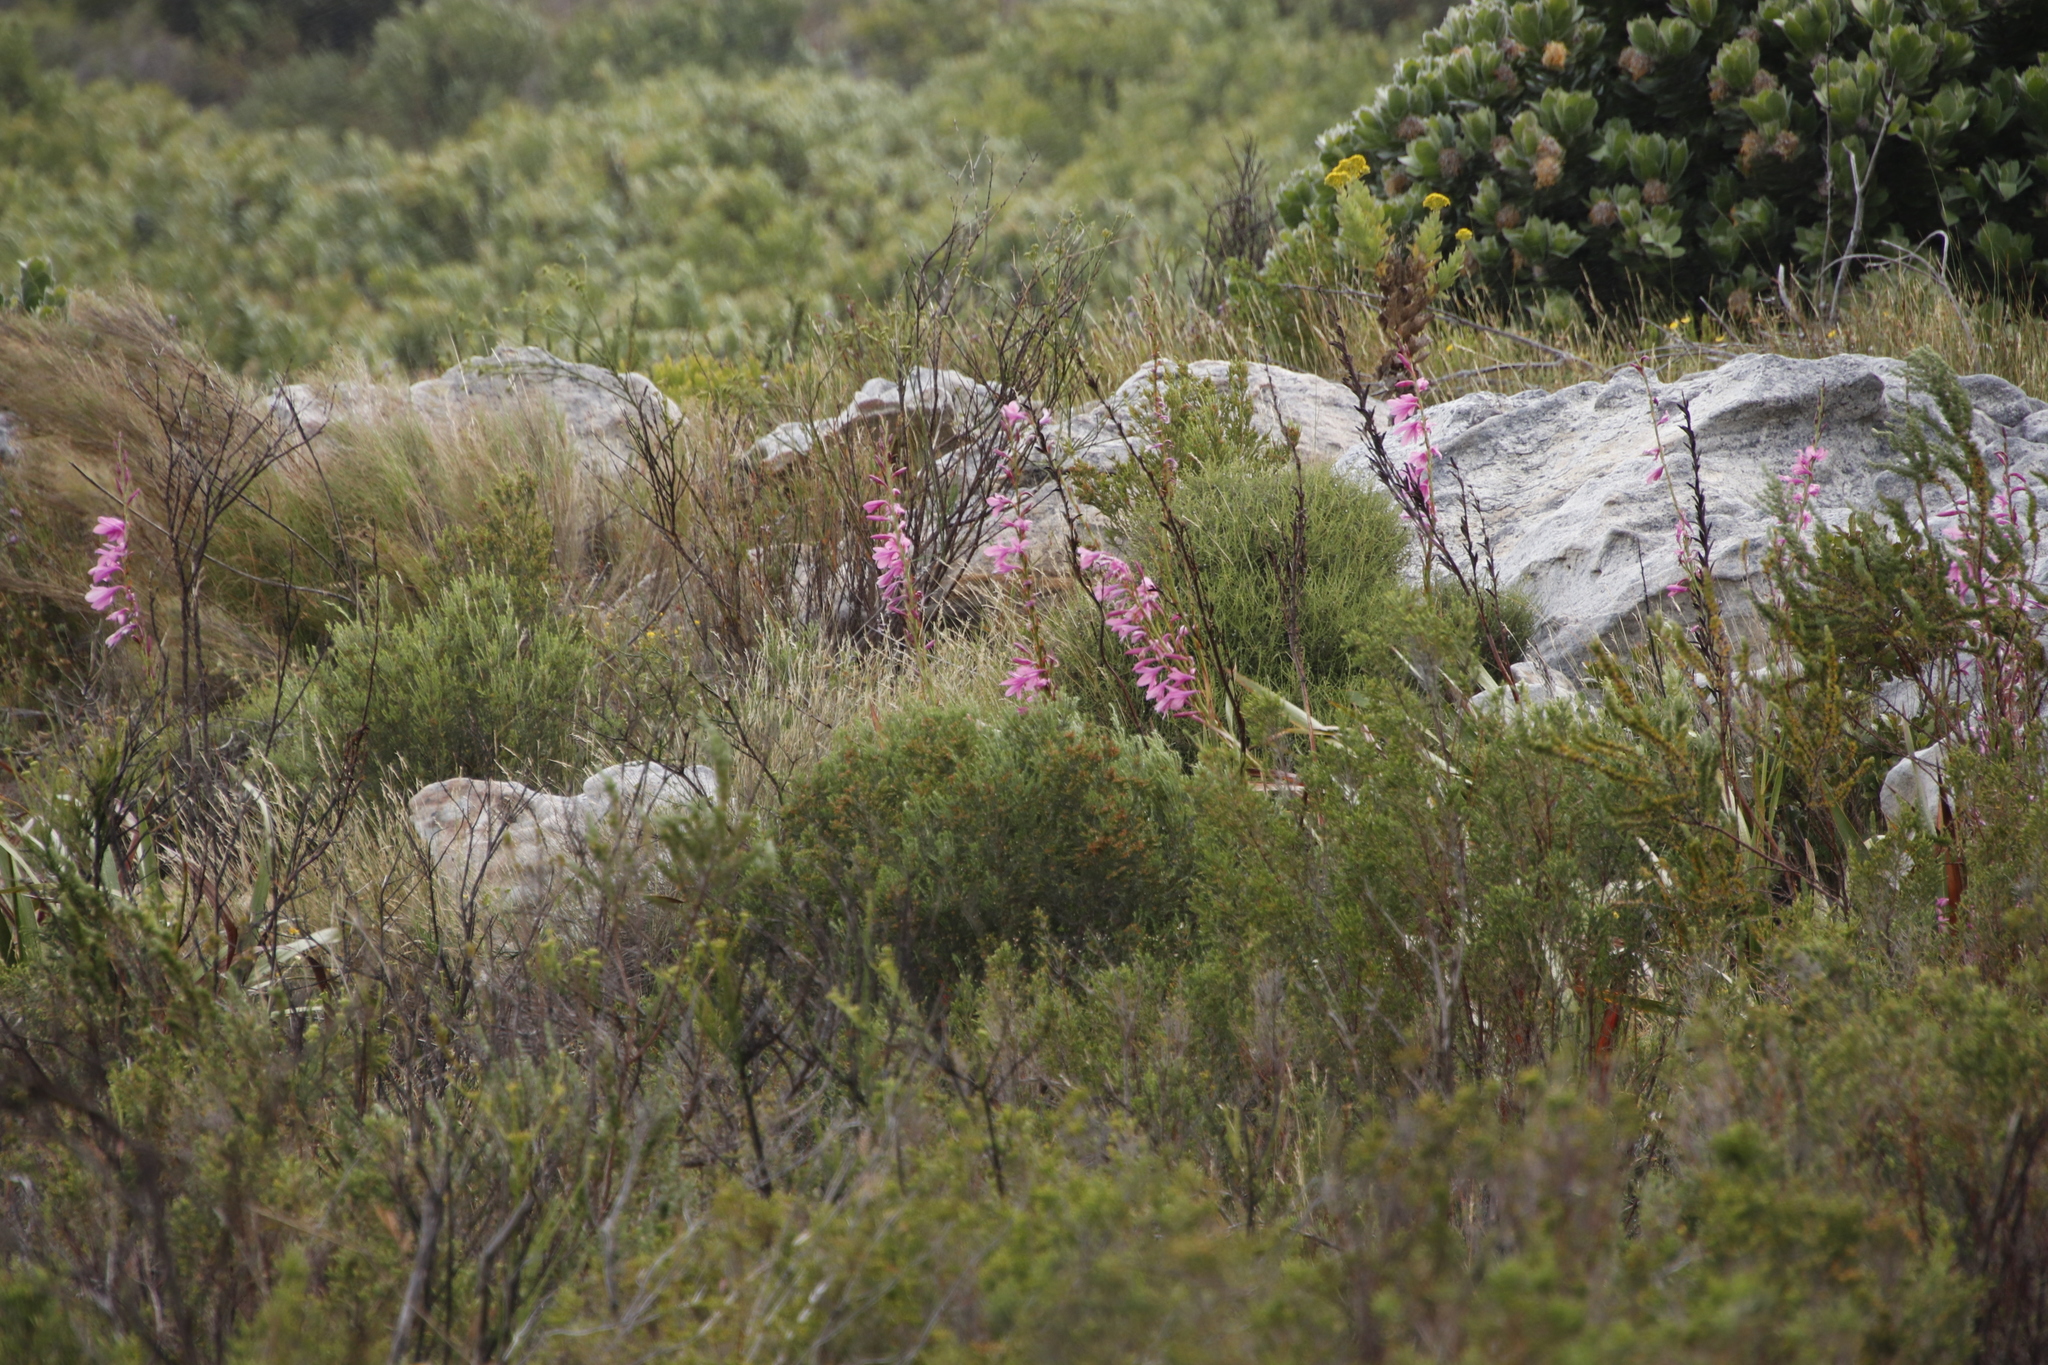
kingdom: Plantae
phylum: Tracheophyta
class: Liliopsida
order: Asparagales
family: Iridaceae
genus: Watsonia
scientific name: Watsonia borbonica
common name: Bugle-lily
